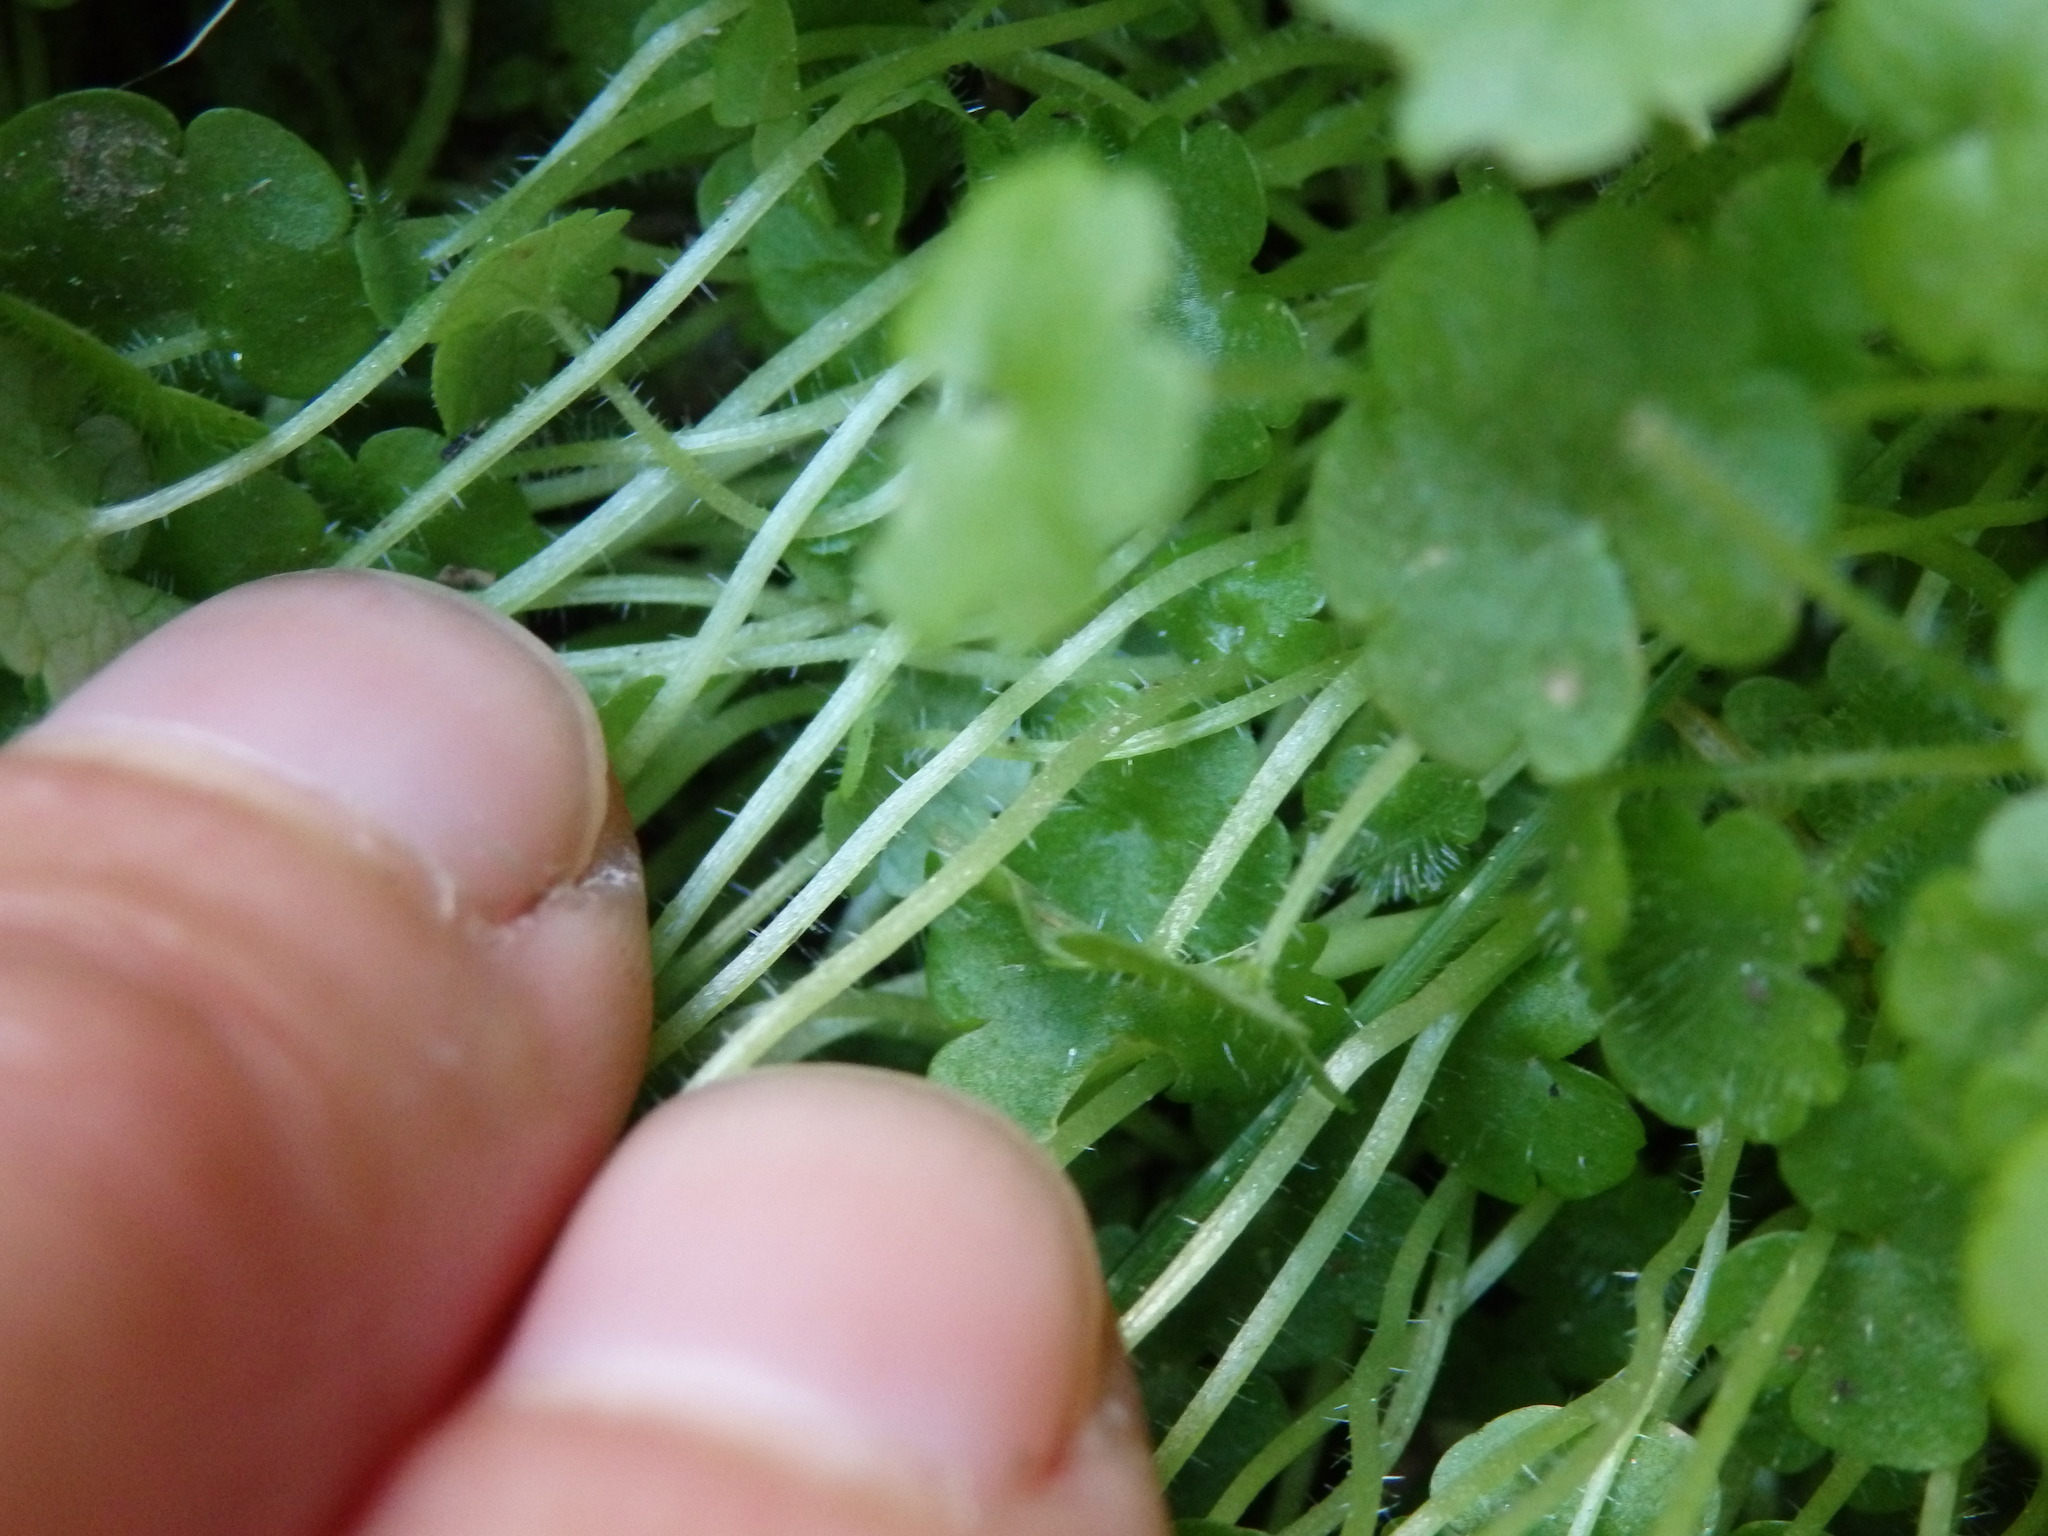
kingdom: Plantae
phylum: Tracheophyta
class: Magnoliopsida
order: Lamiales
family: Plantaginaceae
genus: Sibthorpia
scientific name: Sibthorpia europaea
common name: Cornish moneywort
